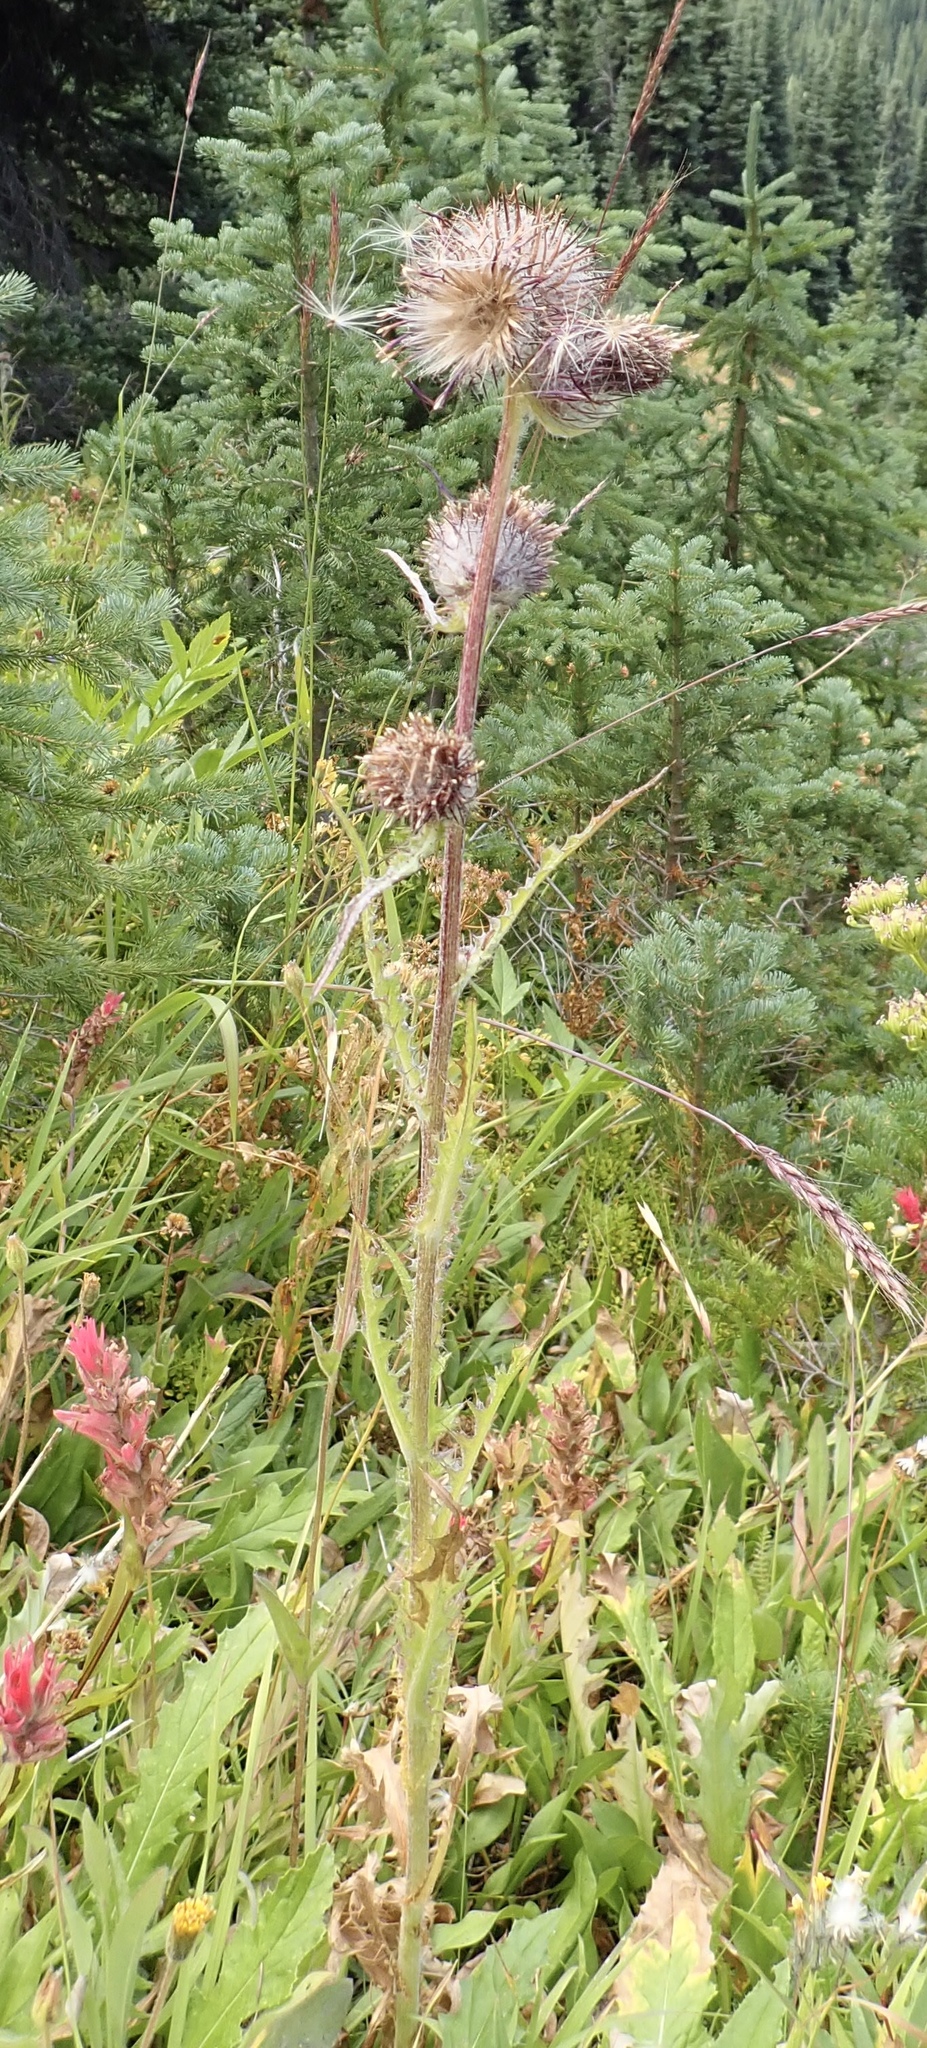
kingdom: Plantae
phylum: Tracheophyta
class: Magnoliopsida
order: Asterales
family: Asteraceae
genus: Cirsium
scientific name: Cirsium edule
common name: Indian thistle
